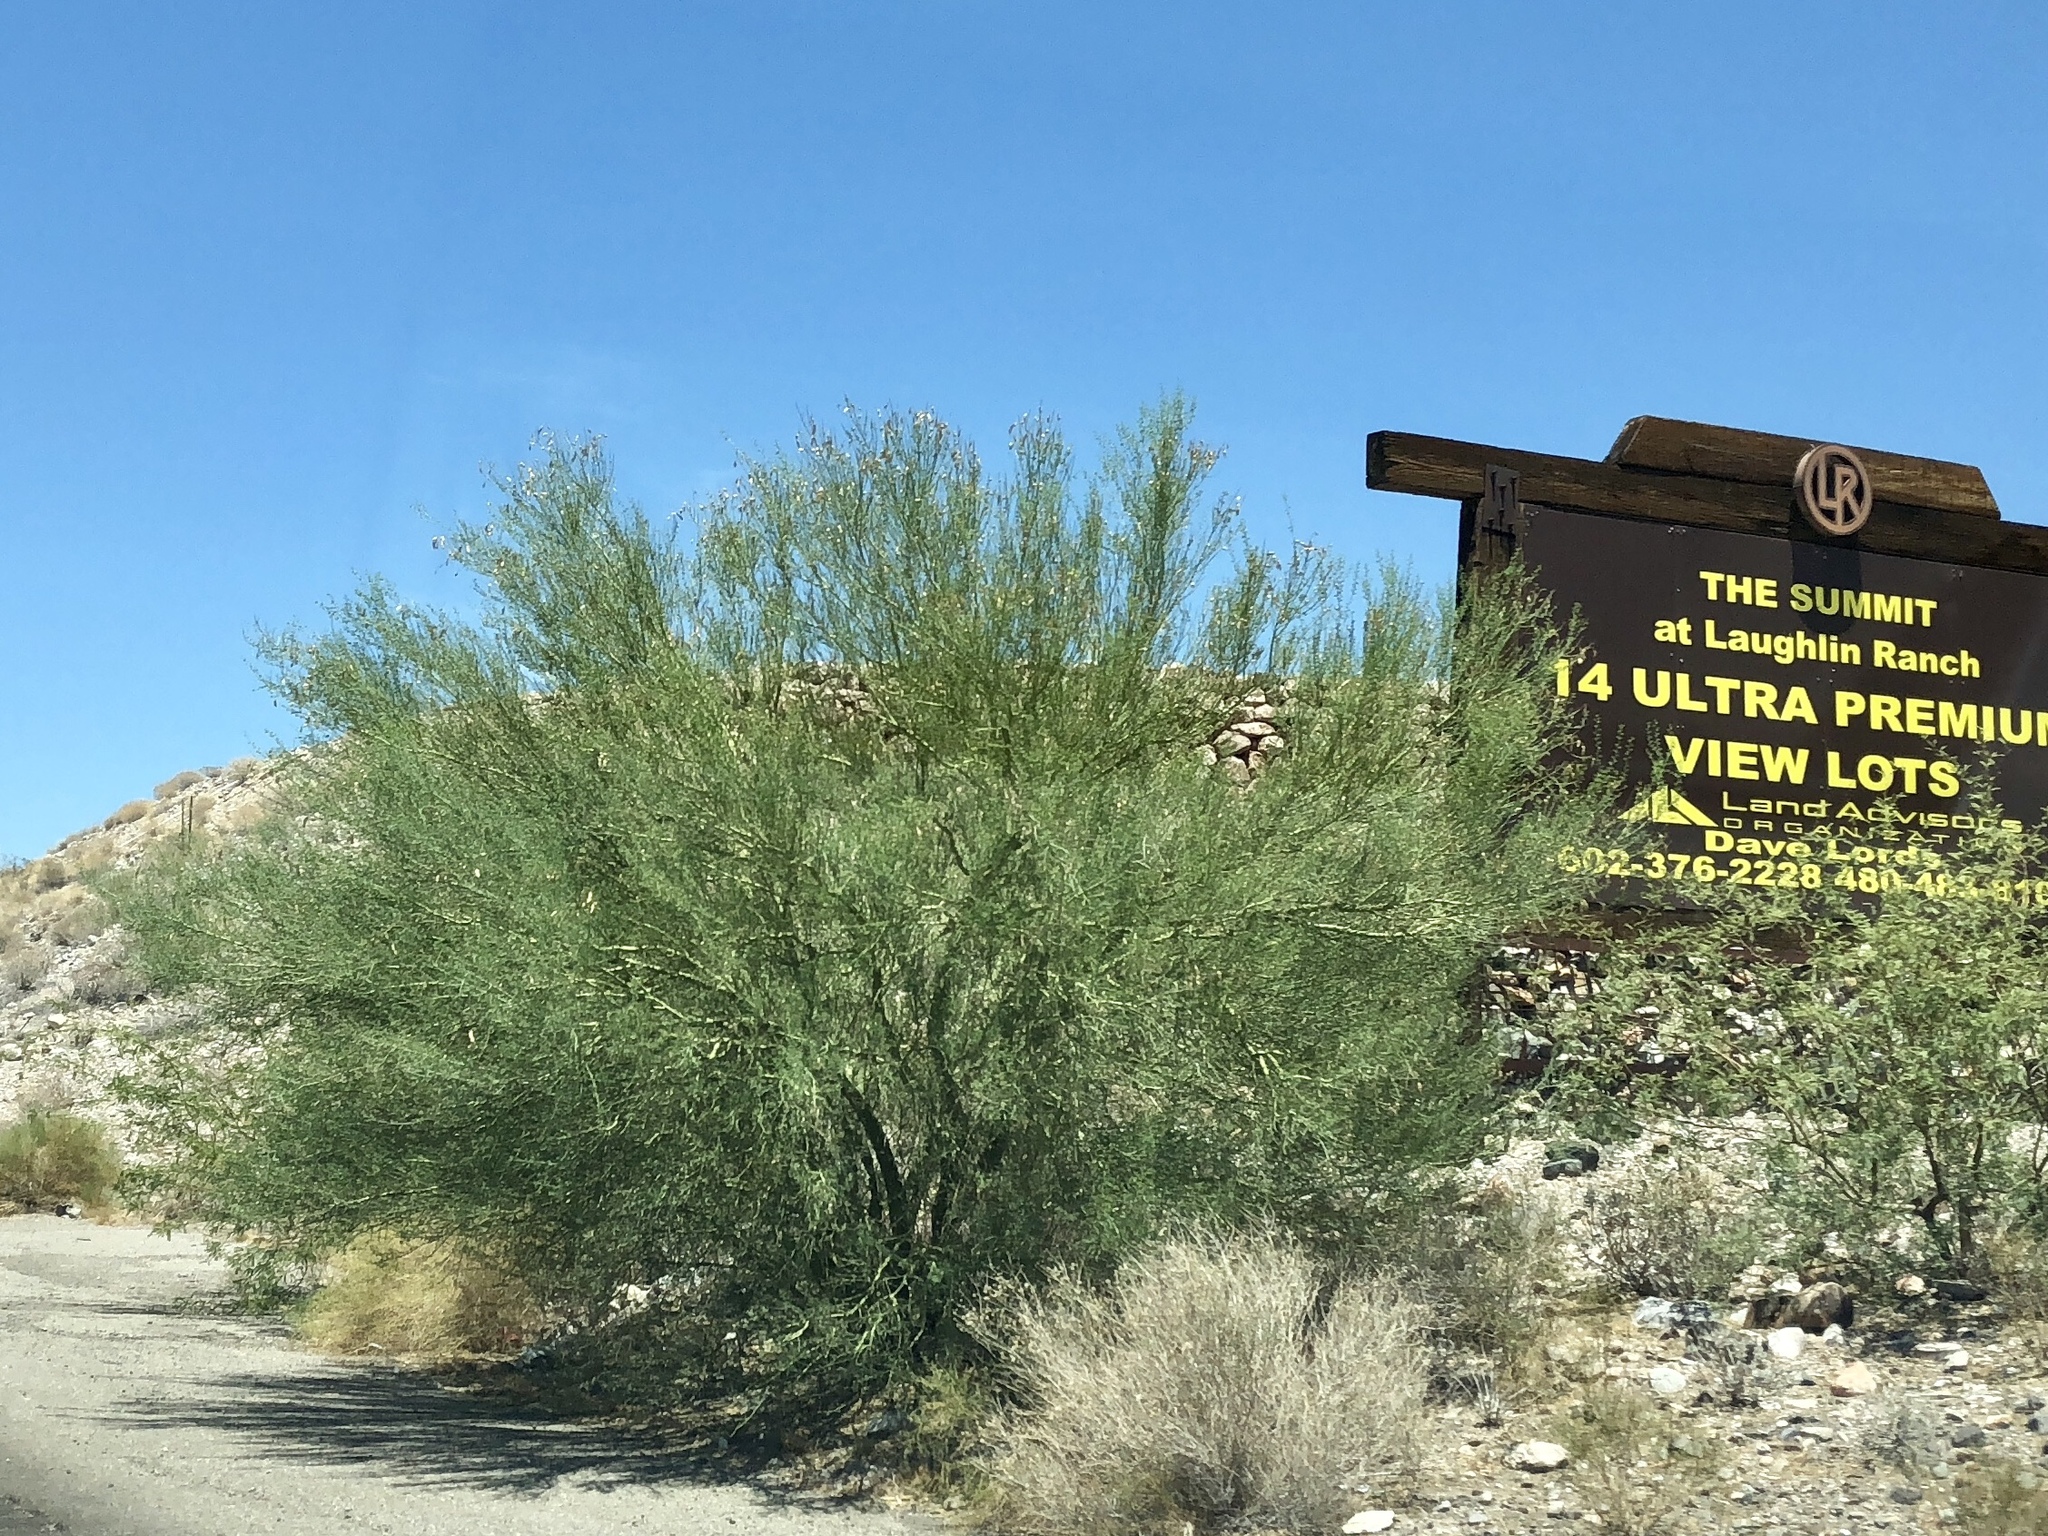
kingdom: Plantae
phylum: Tracheophyta
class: Magnoliopsida
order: Fabales
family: Fabaceae
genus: Parkinsonia
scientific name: Parkinsonia florida
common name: Blue paloverde
